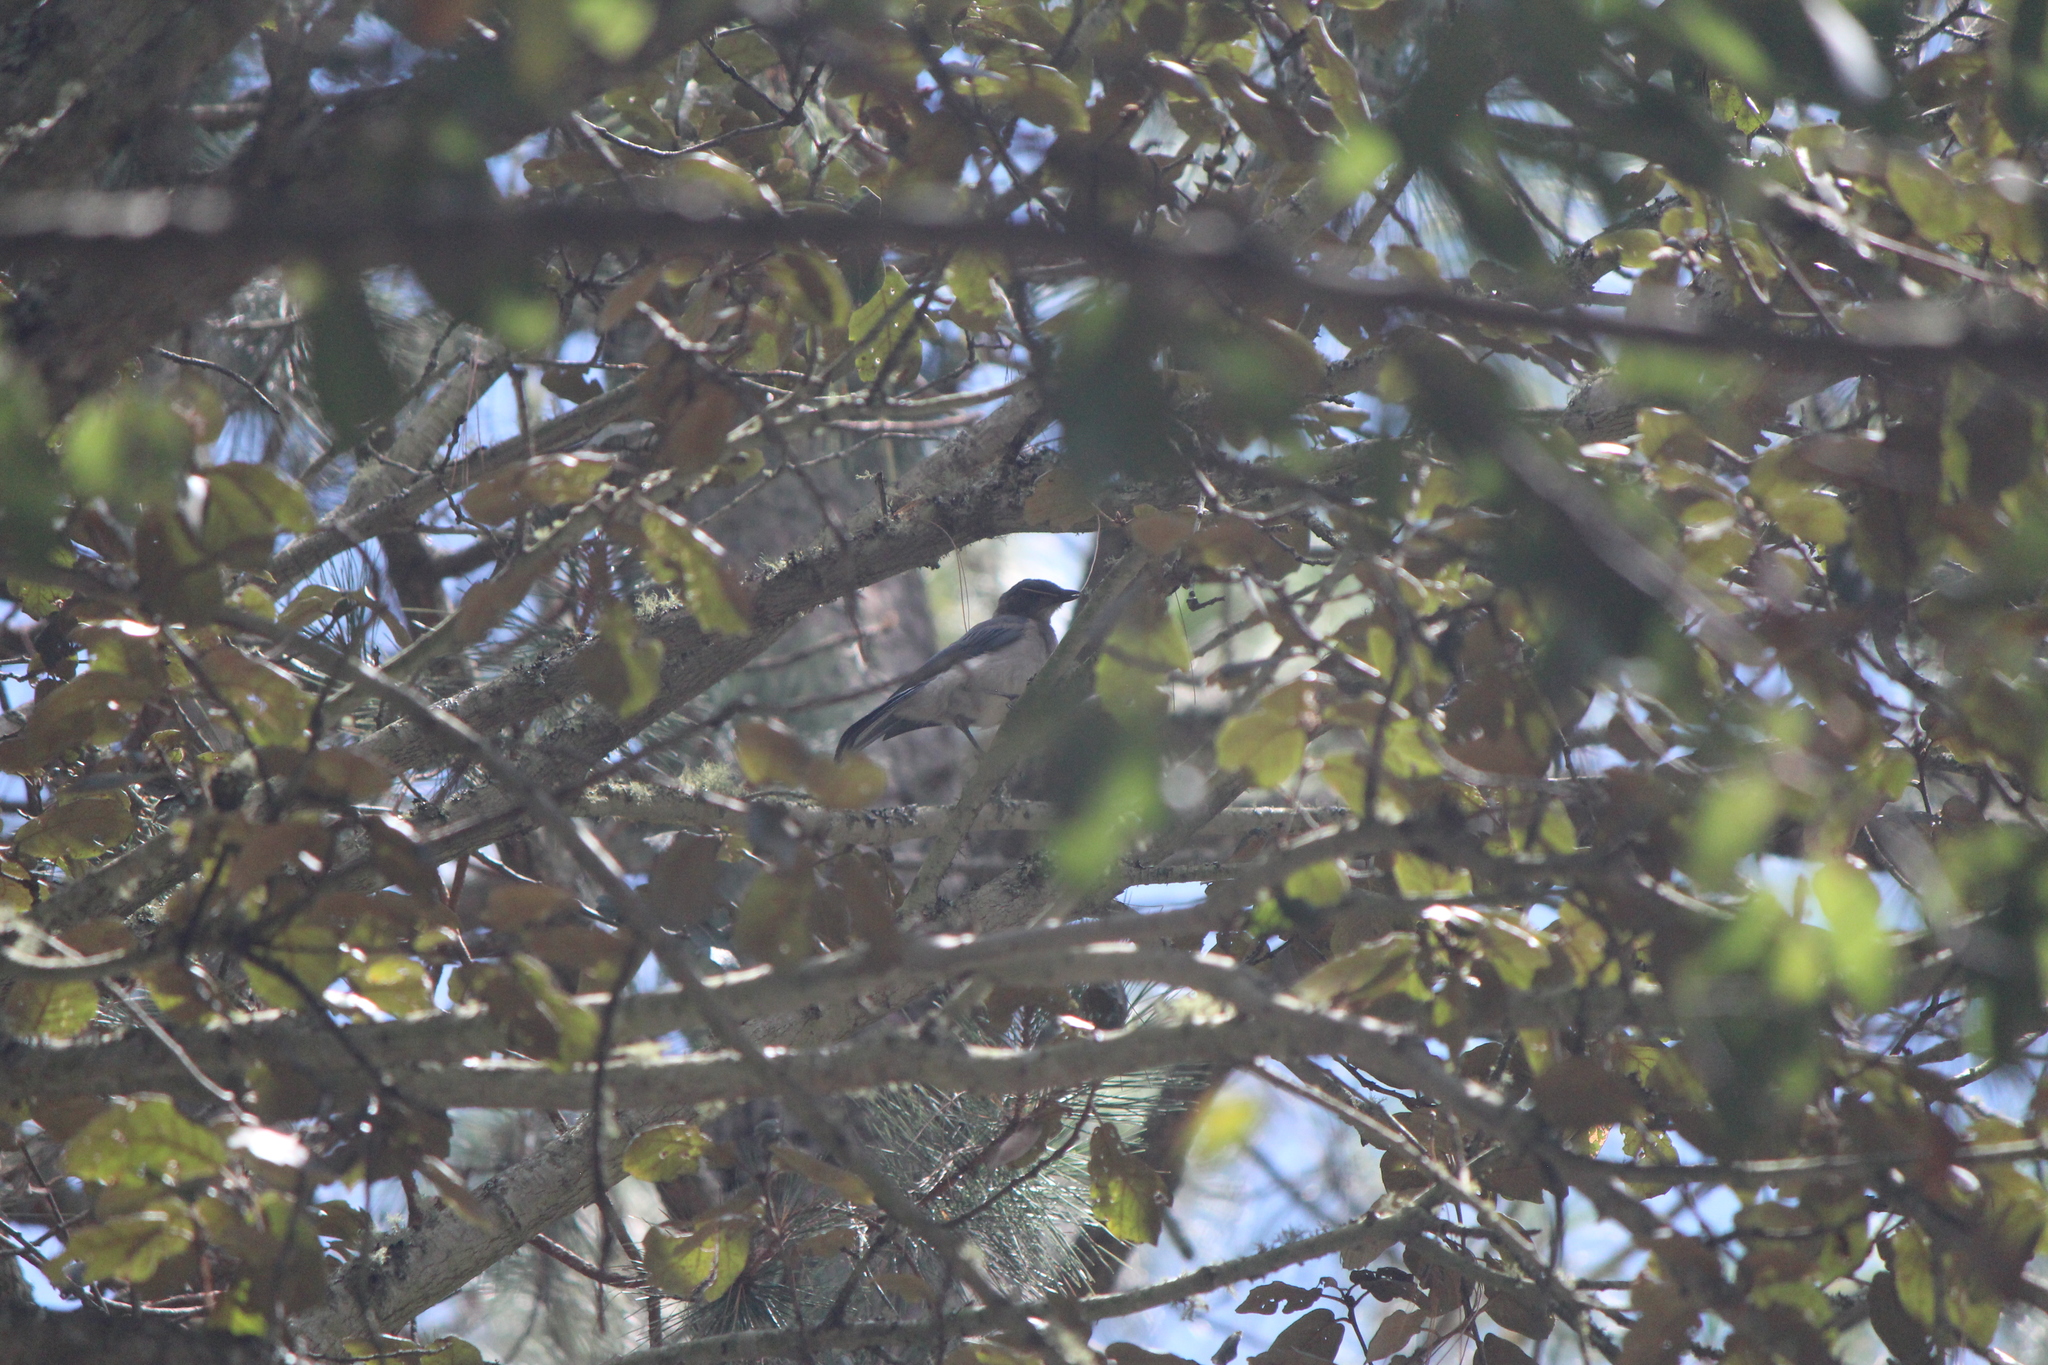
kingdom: Animalia
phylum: Chordata
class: Aves
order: Passeriformes
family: Corvidae
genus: Aphelocoma
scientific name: Aphelocoma wollweberi
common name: Mexican jay
